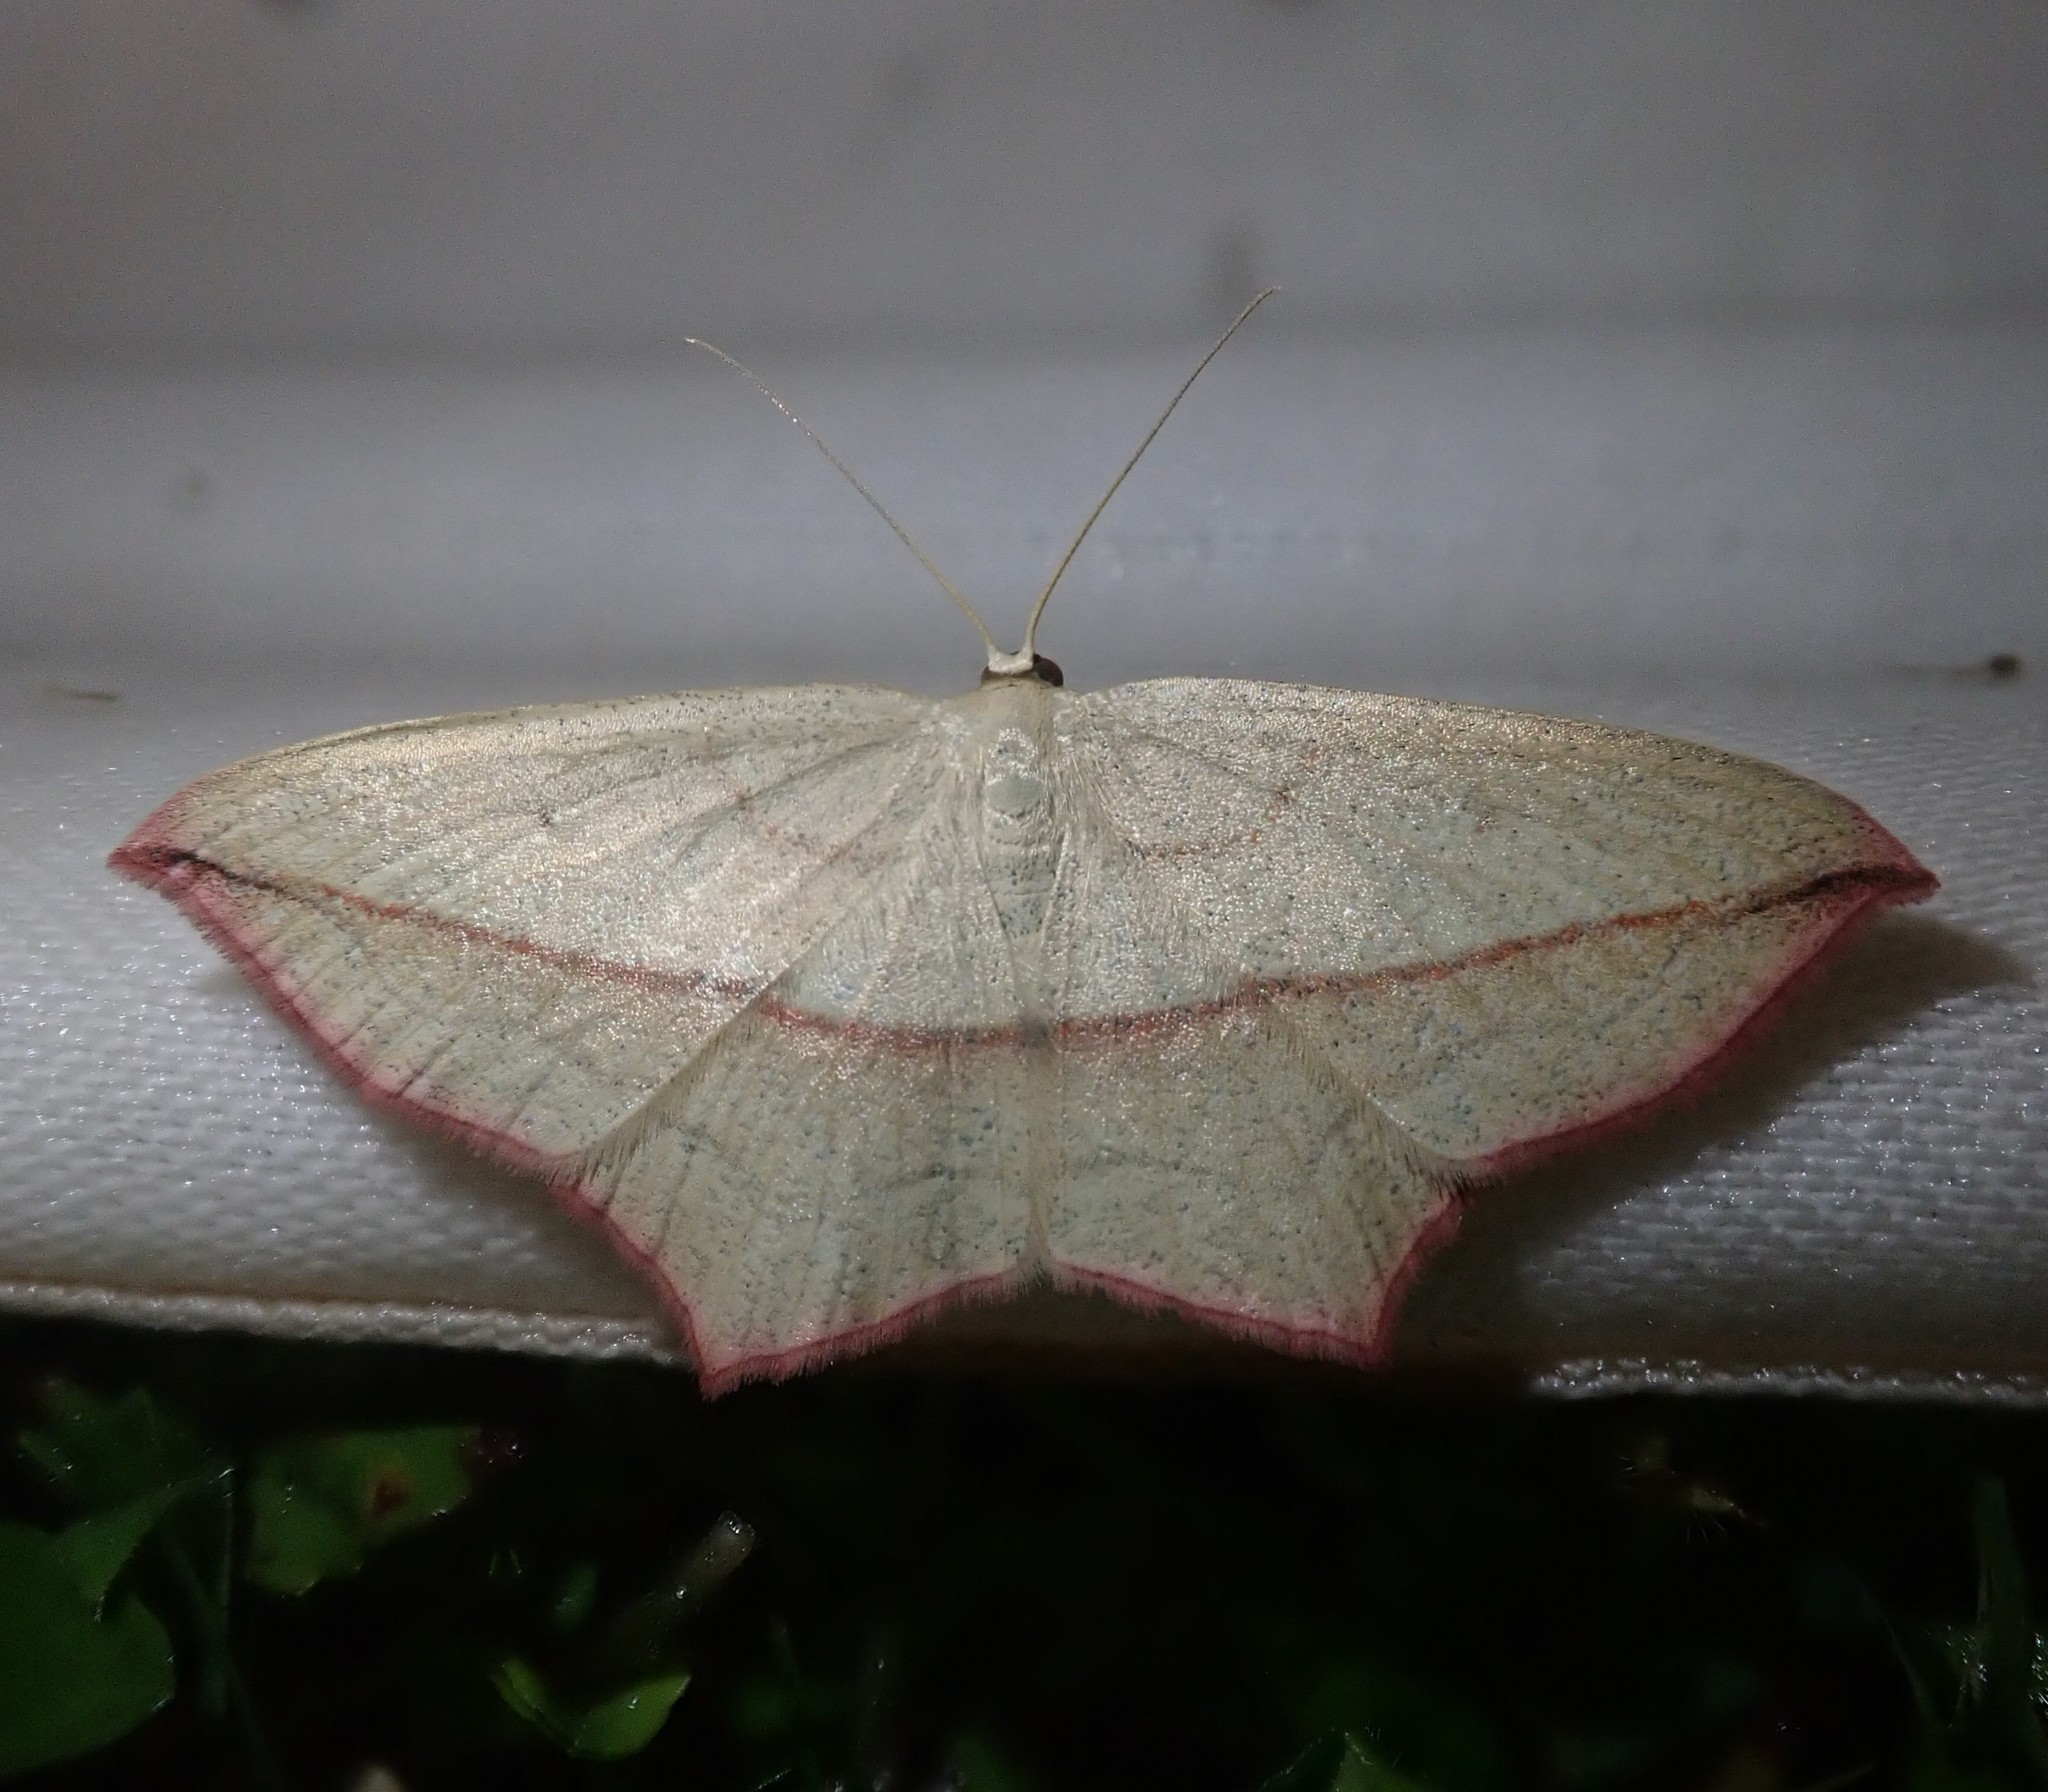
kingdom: Animalia
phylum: Arthropoda
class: Insecta
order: Lepidoptera
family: Geometridae
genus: Timandra
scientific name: Timandra comae
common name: Blood-vein
